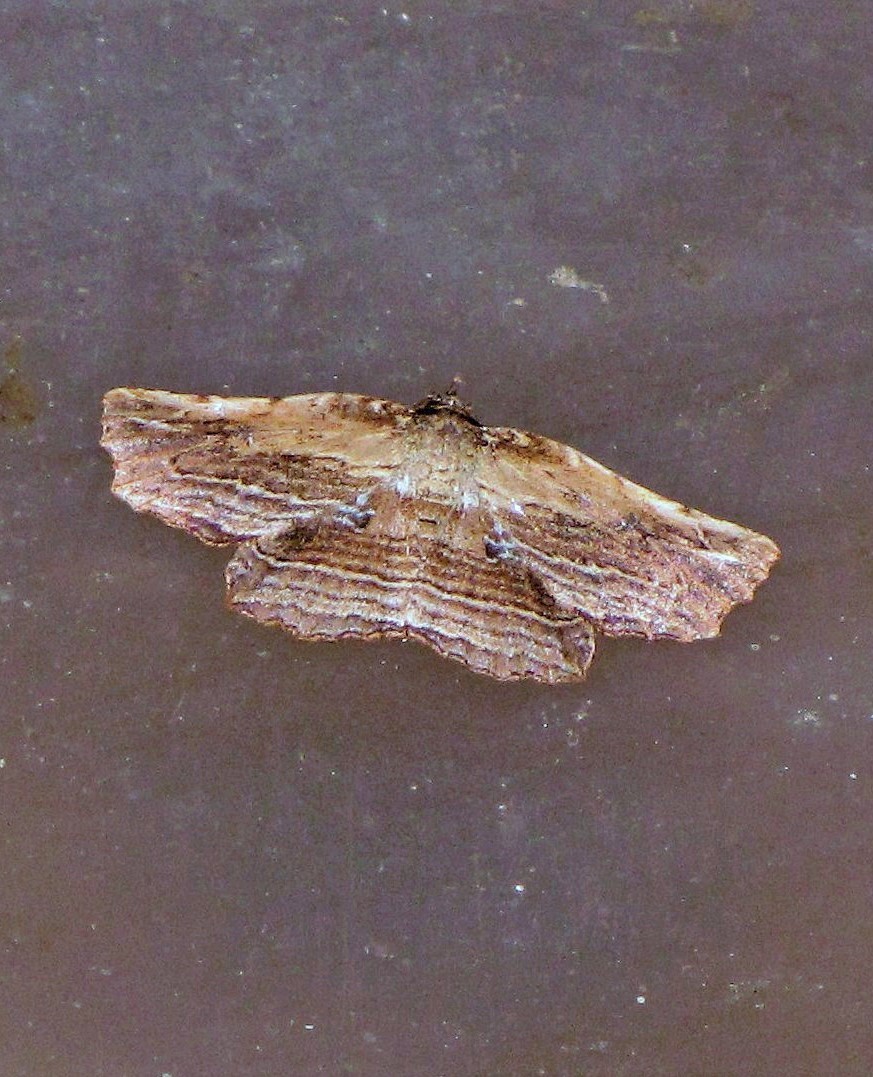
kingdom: Animalia
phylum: Arthropoda
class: Insecta
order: Lepidoptera
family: Erebidae
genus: Diagrapta
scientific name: Diagrapta lignaria
